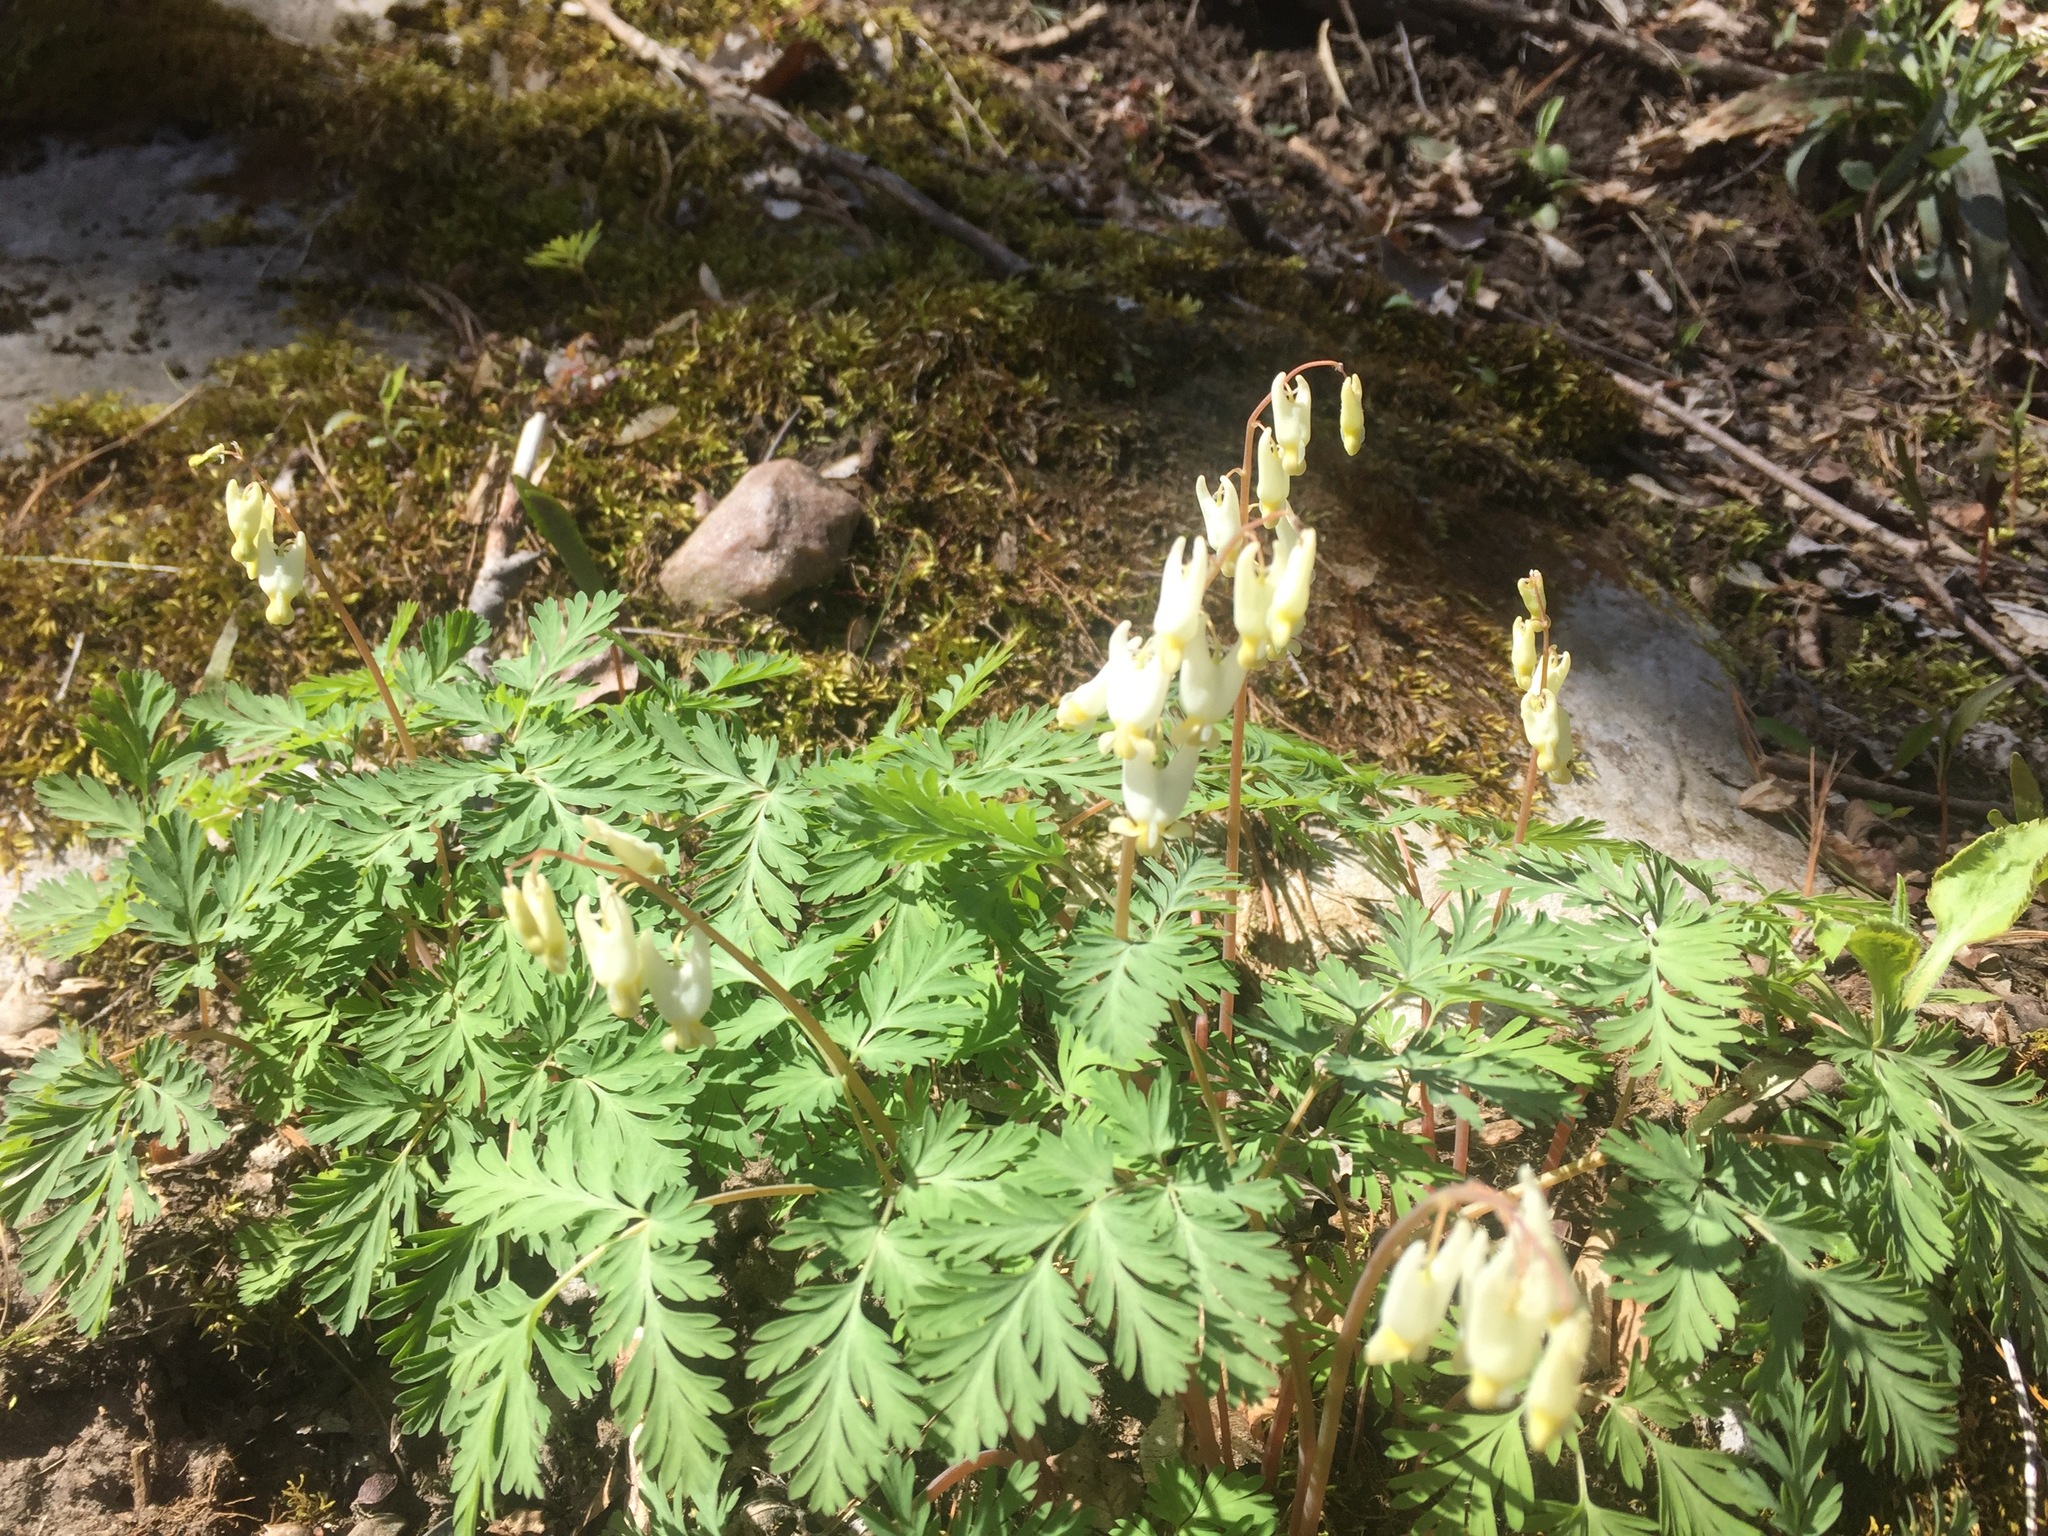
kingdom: Plantae
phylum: Tracheophyta
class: Magnoliopsida
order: Ranunculales
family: Papaveraceae
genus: Dicentra
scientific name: Dicentra cucullaria
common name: Dutchman's breeches
